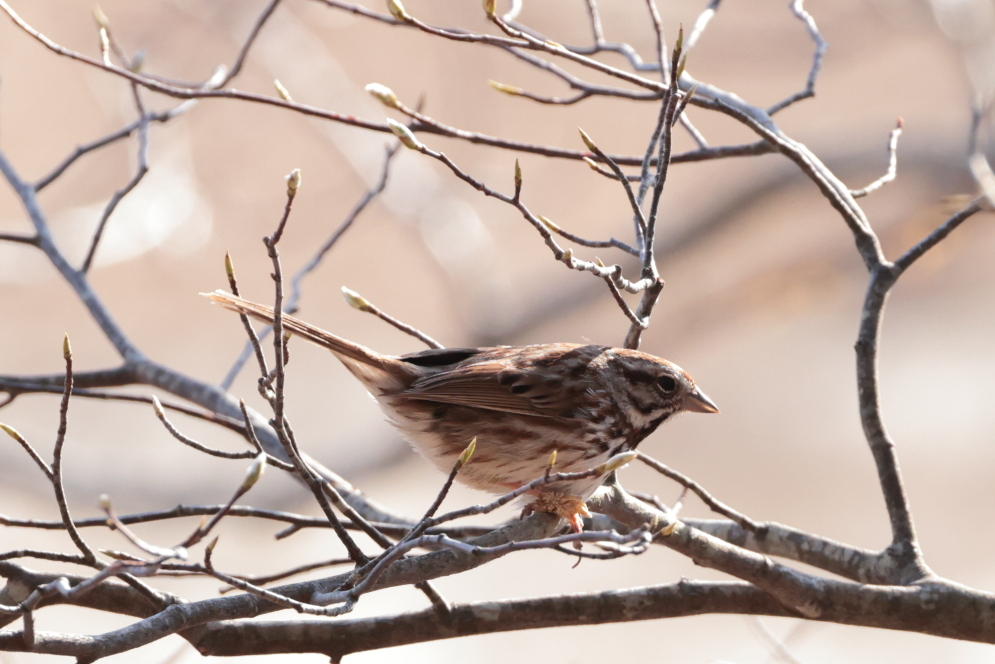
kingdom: Animalia
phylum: Chordata
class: Aves
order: Passeriformes
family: Passerellidae
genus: Melospiza
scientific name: Melospiza melodia
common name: Song sparrow
